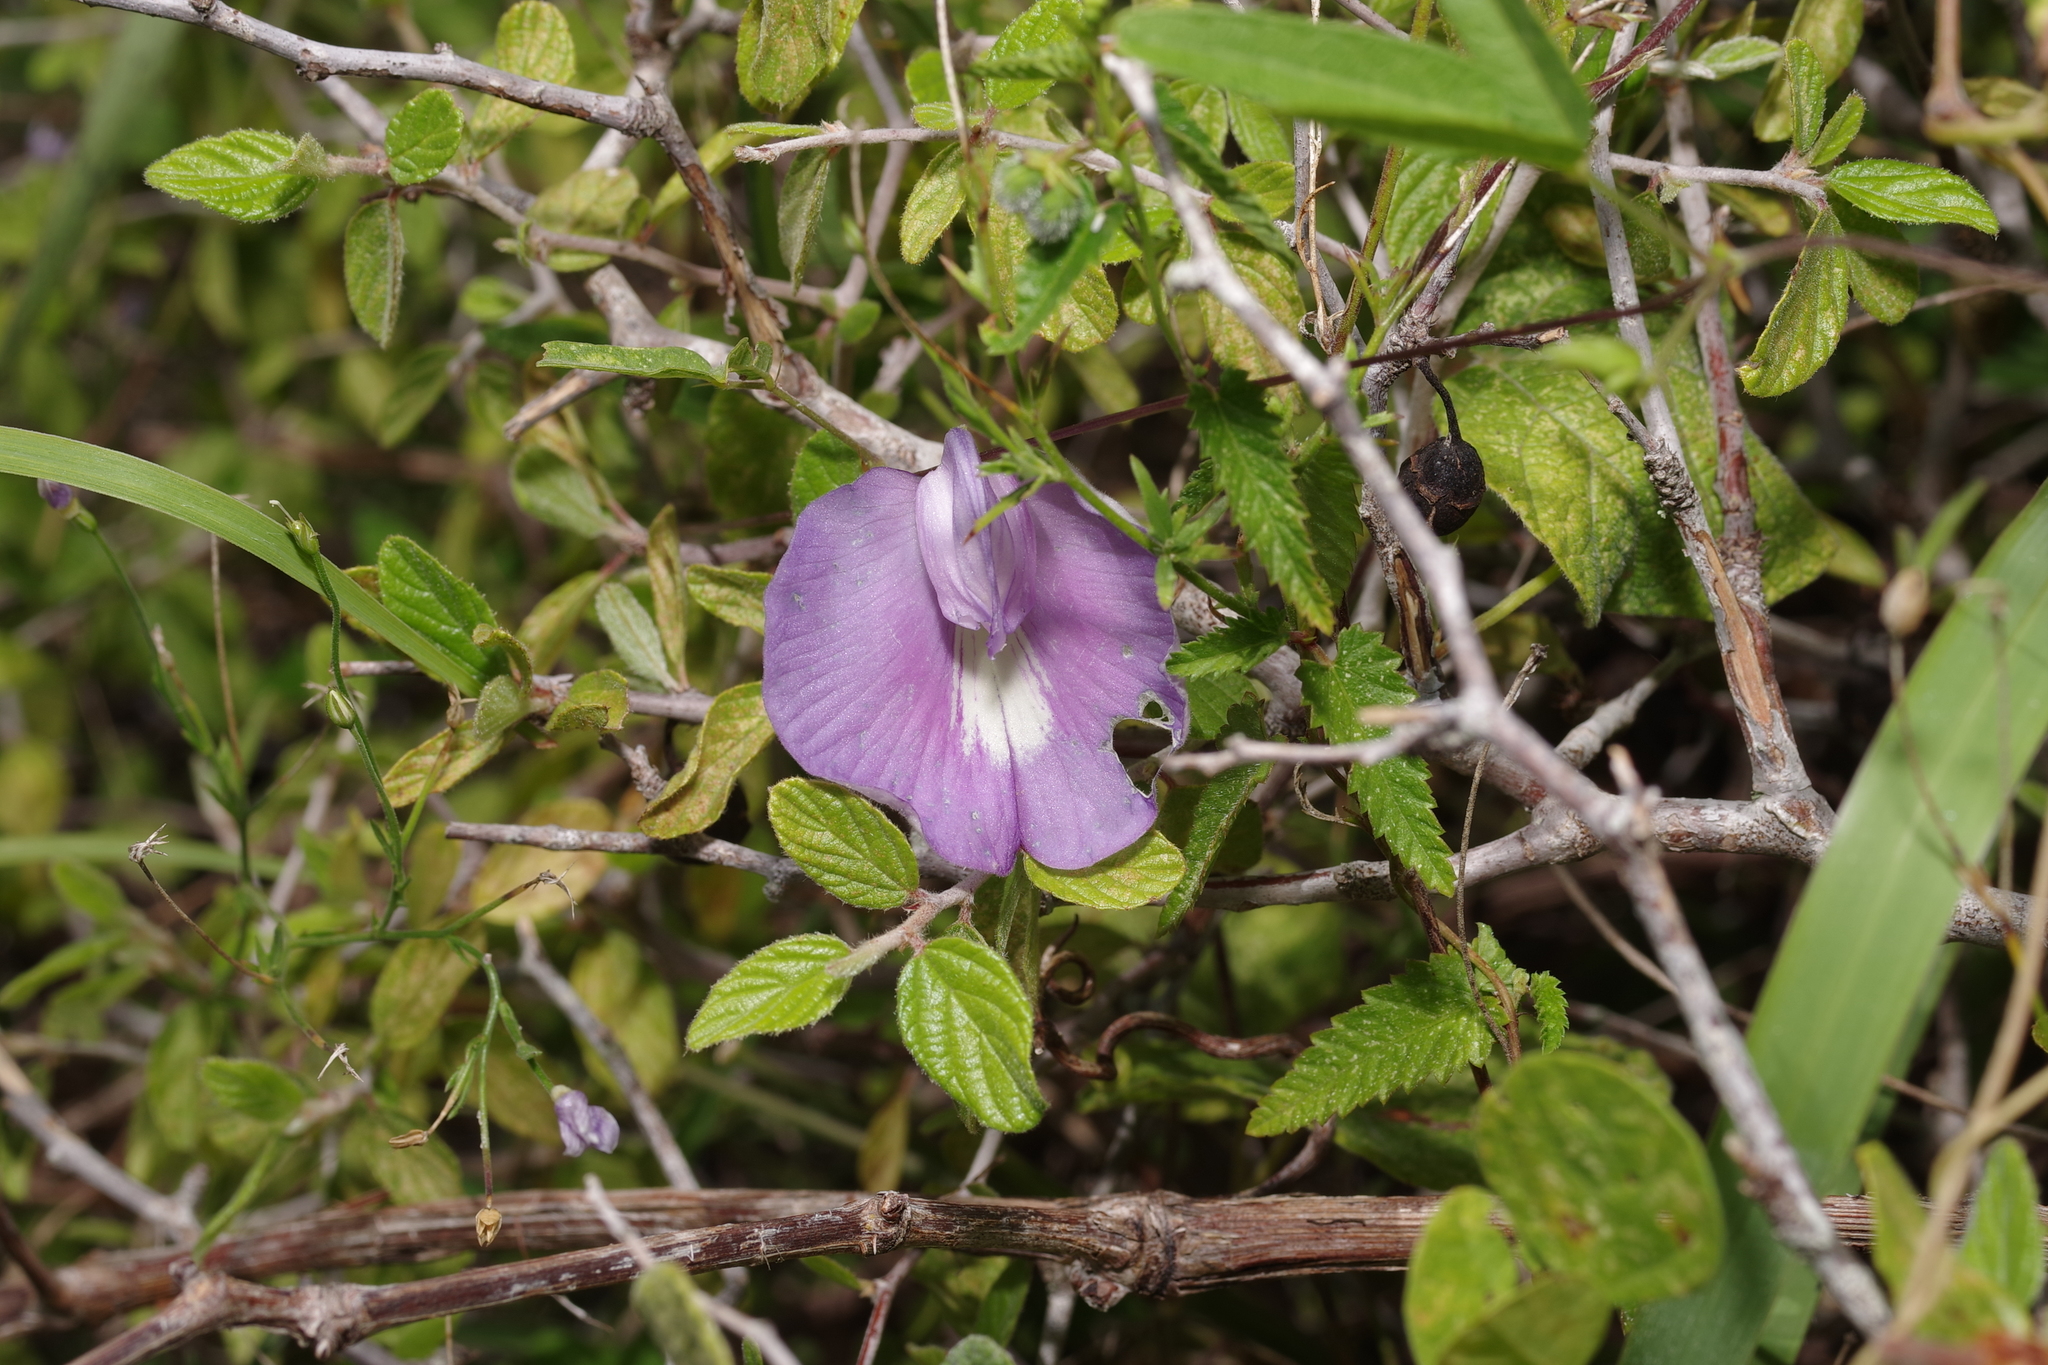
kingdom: Plantae
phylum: Tracheophyta
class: Magnoliopsida
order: Fabales
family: Fabaceae
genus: Centrosema
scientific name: Centrosema virginianum
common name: Butterfly-pea
